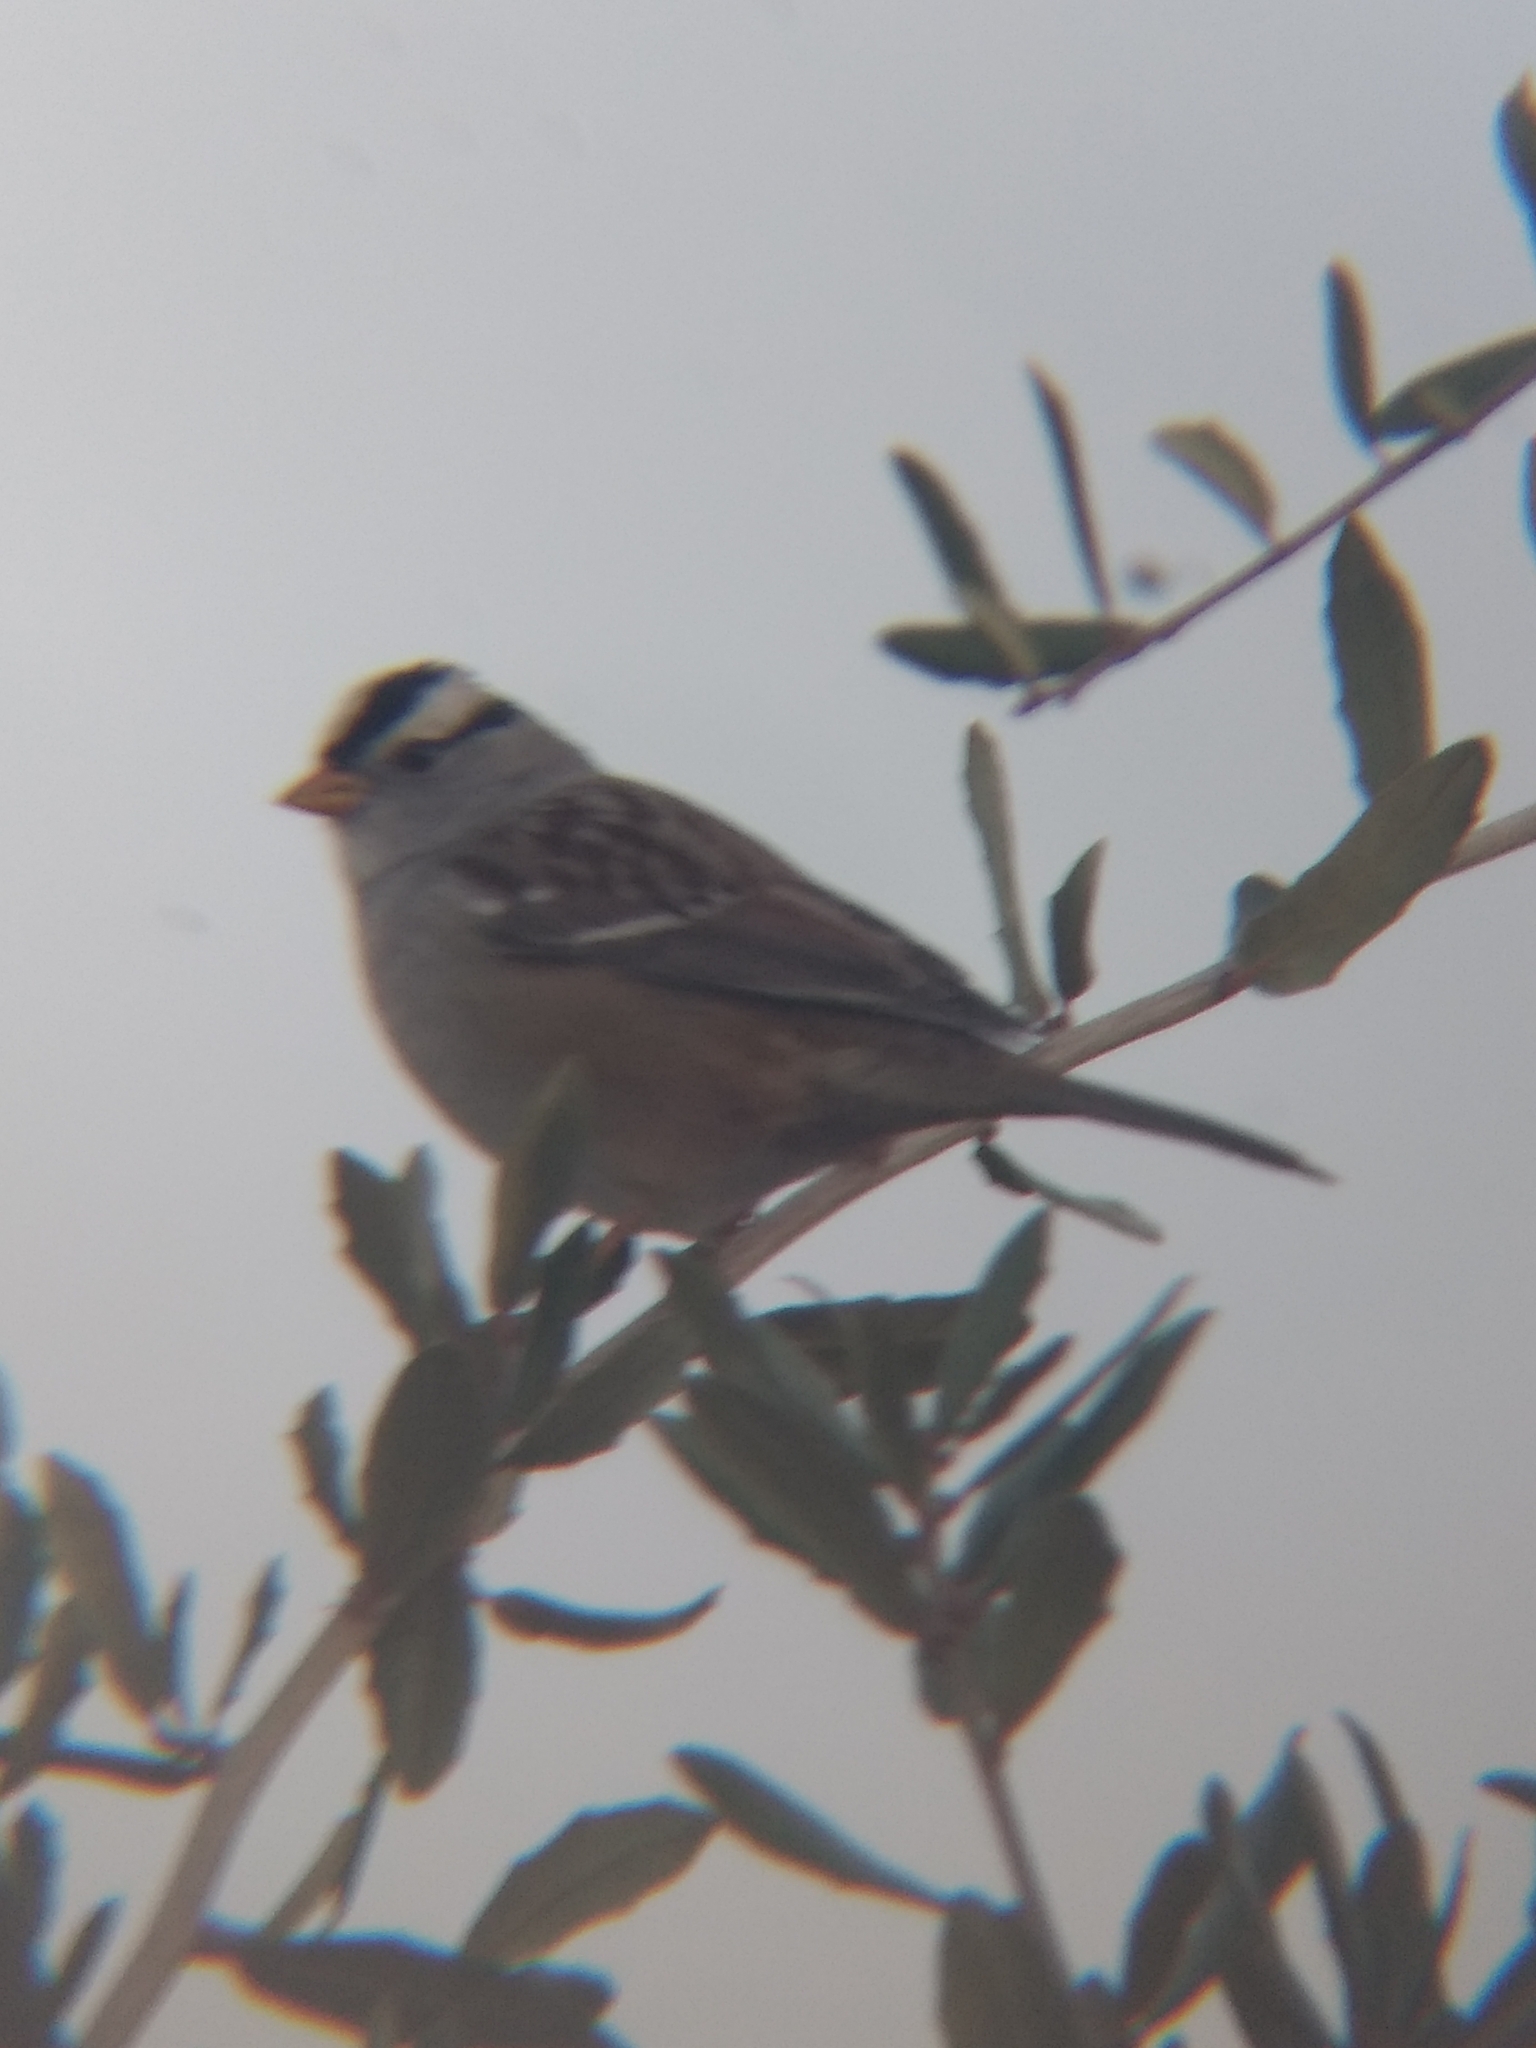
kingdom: Animalia
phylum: Chordata
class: Aves
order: Passeriformes
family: Passerellidae
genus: Zonotrichia
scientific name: Zonotrichia leucophrys
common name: White-crowned sparrow
